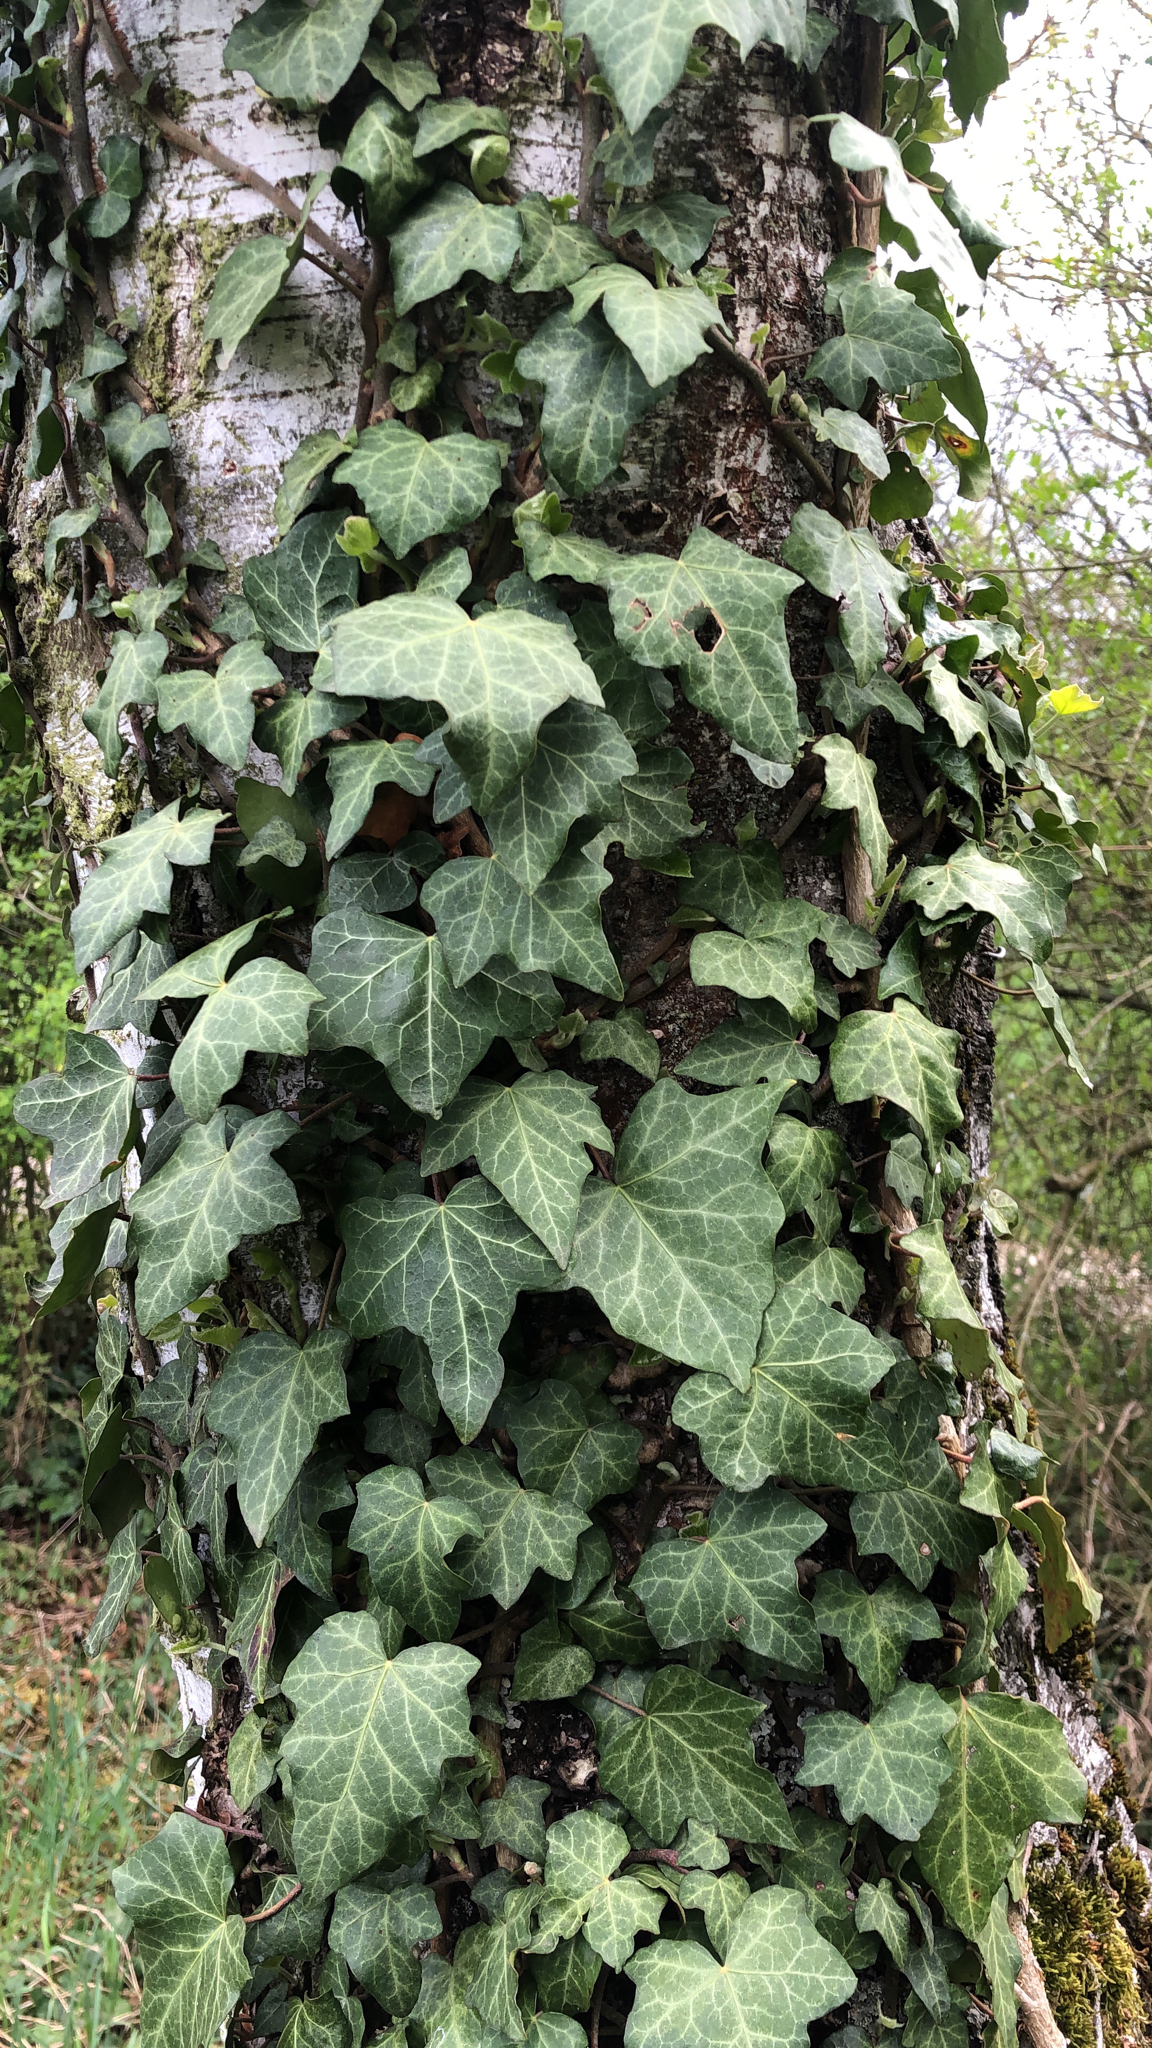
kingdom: Plantae
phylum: Tracheophyta
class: Magnoliopsida
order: Apiales
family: Araliaceae
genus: Hedera
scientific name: Hedera helix
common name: Ivy
